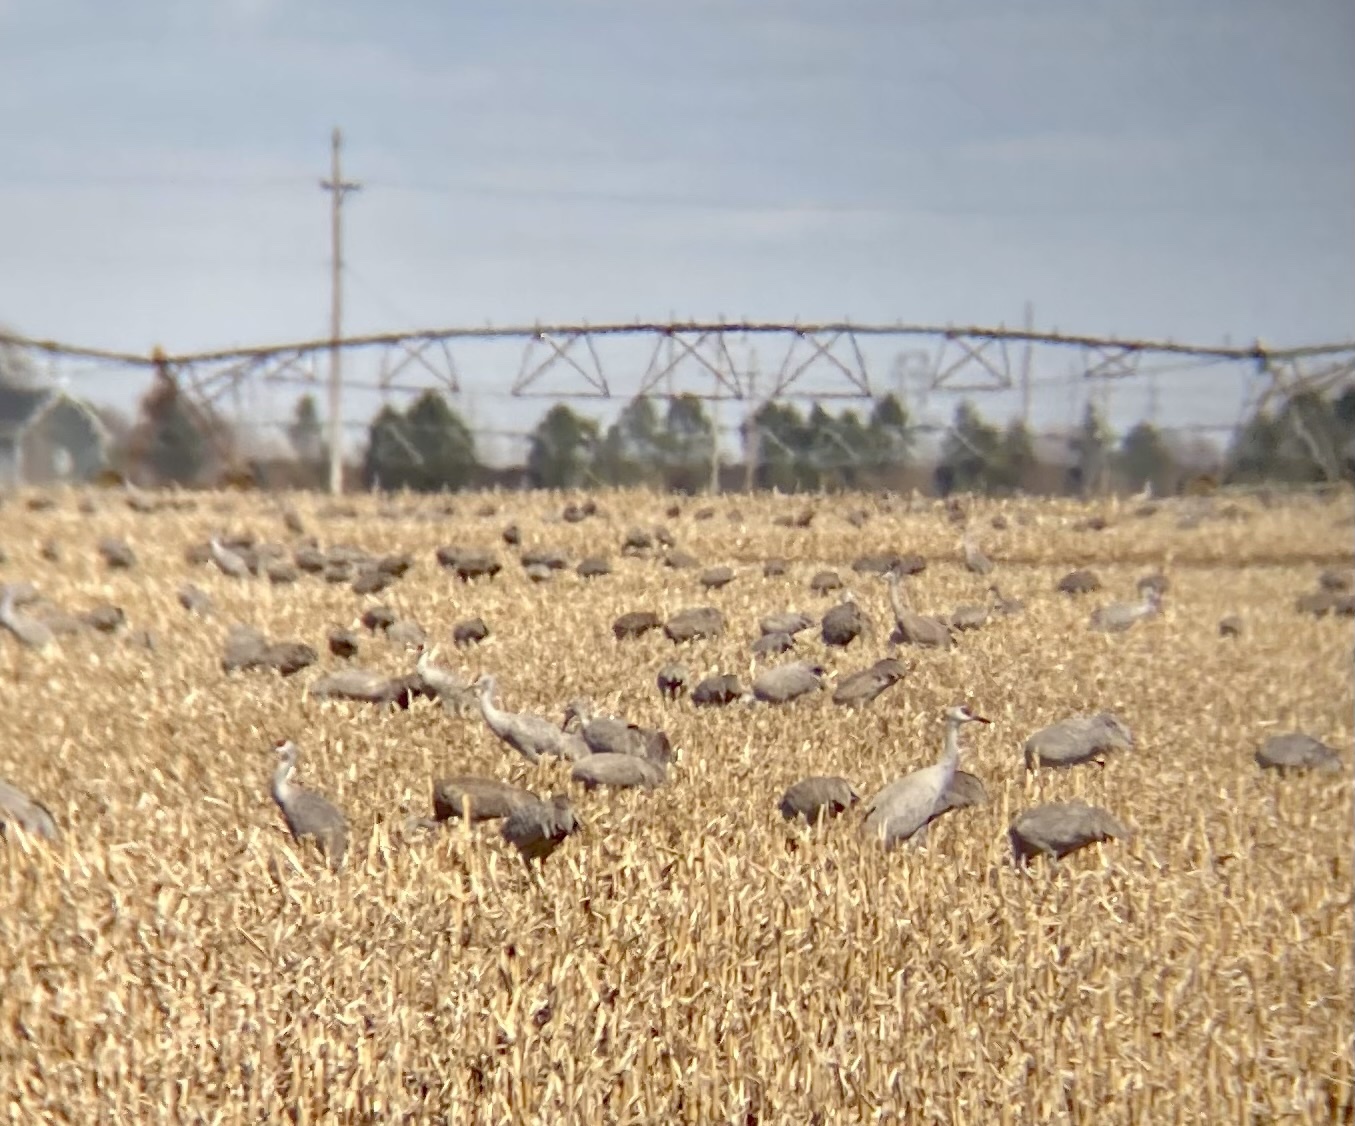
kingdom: Animalia
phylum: Chordata
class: Aves
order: Gruiformes
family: Gruidae
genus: Grus
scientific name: Grus canadensis
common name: Sandhill crane
